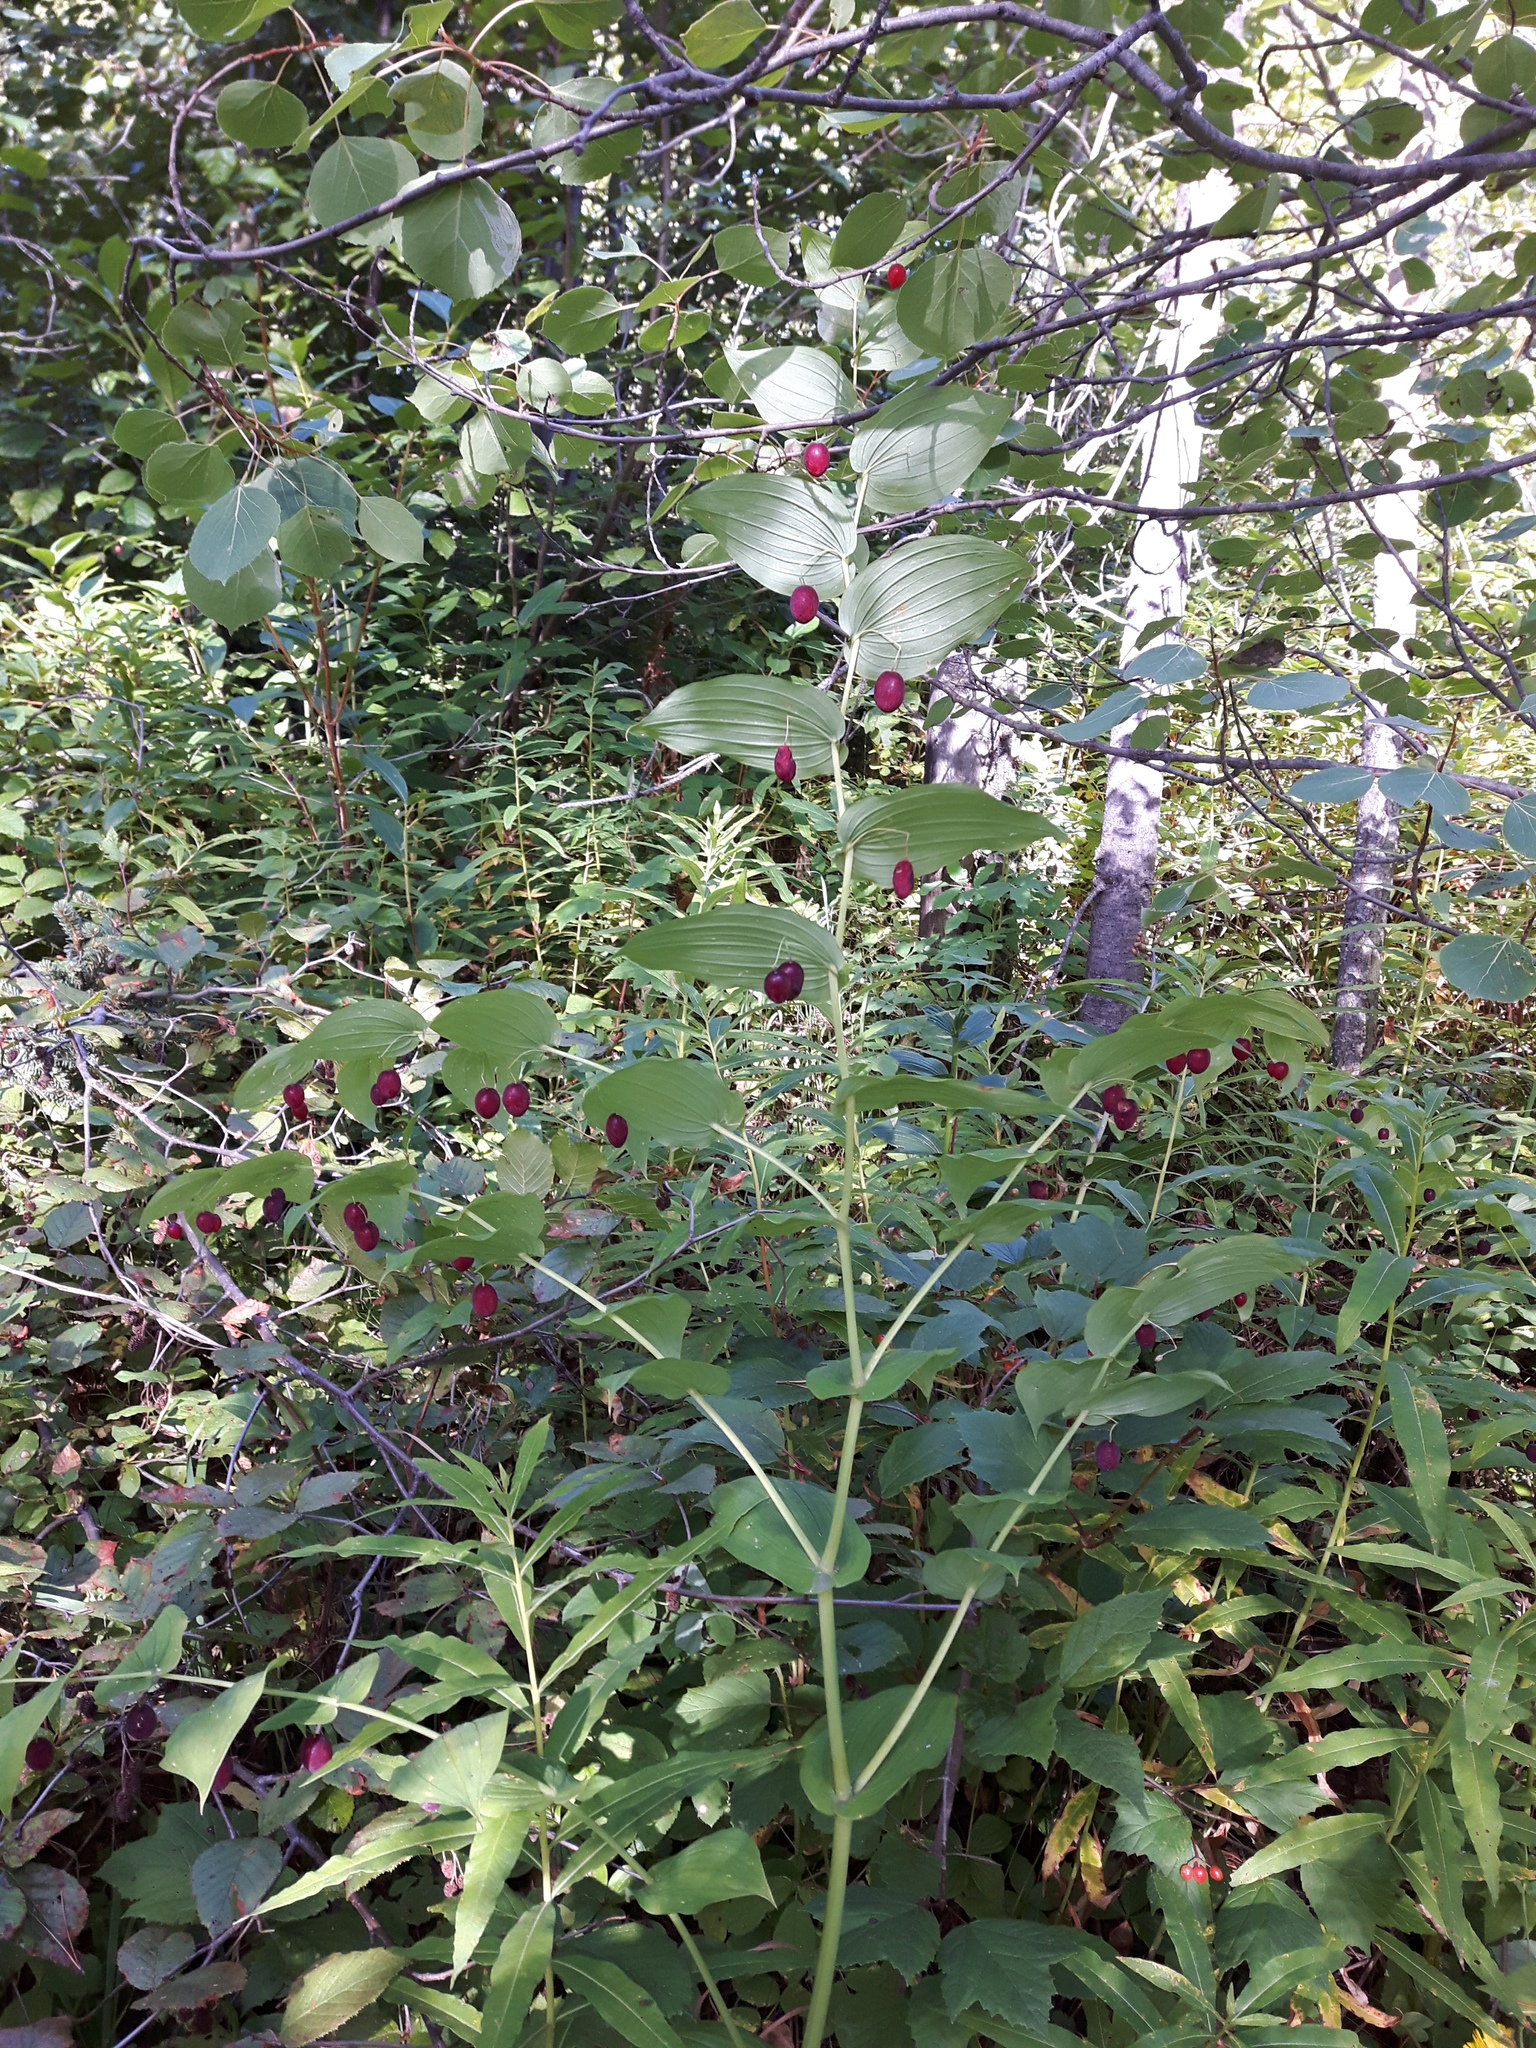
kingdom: Plantae
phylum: Tracheophyta
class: Liliopsida
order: Liliales
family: Liliaceae
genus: Streptopus
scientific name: Streptopus amplexifolius
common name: Clasp twisted stalk
